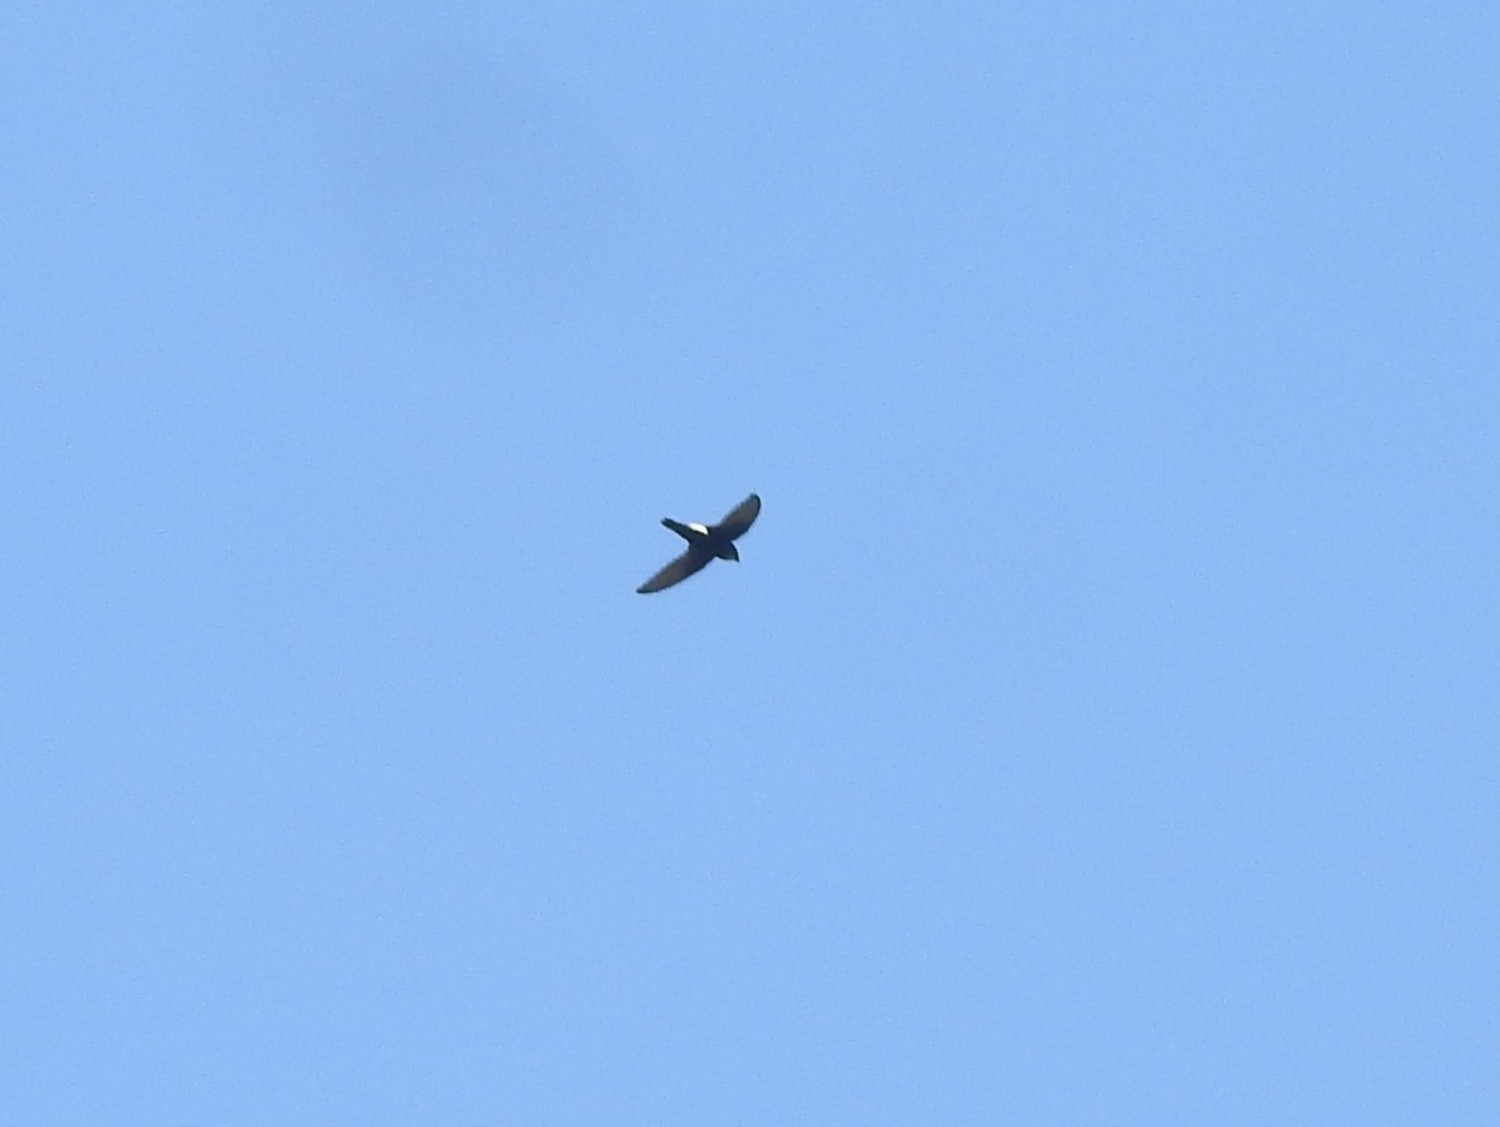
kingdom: Animalia
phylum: Chordata
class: Aves
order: Apodiformes
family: Apodidae
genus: Apus
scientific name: Apus affinis
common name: Little swift
